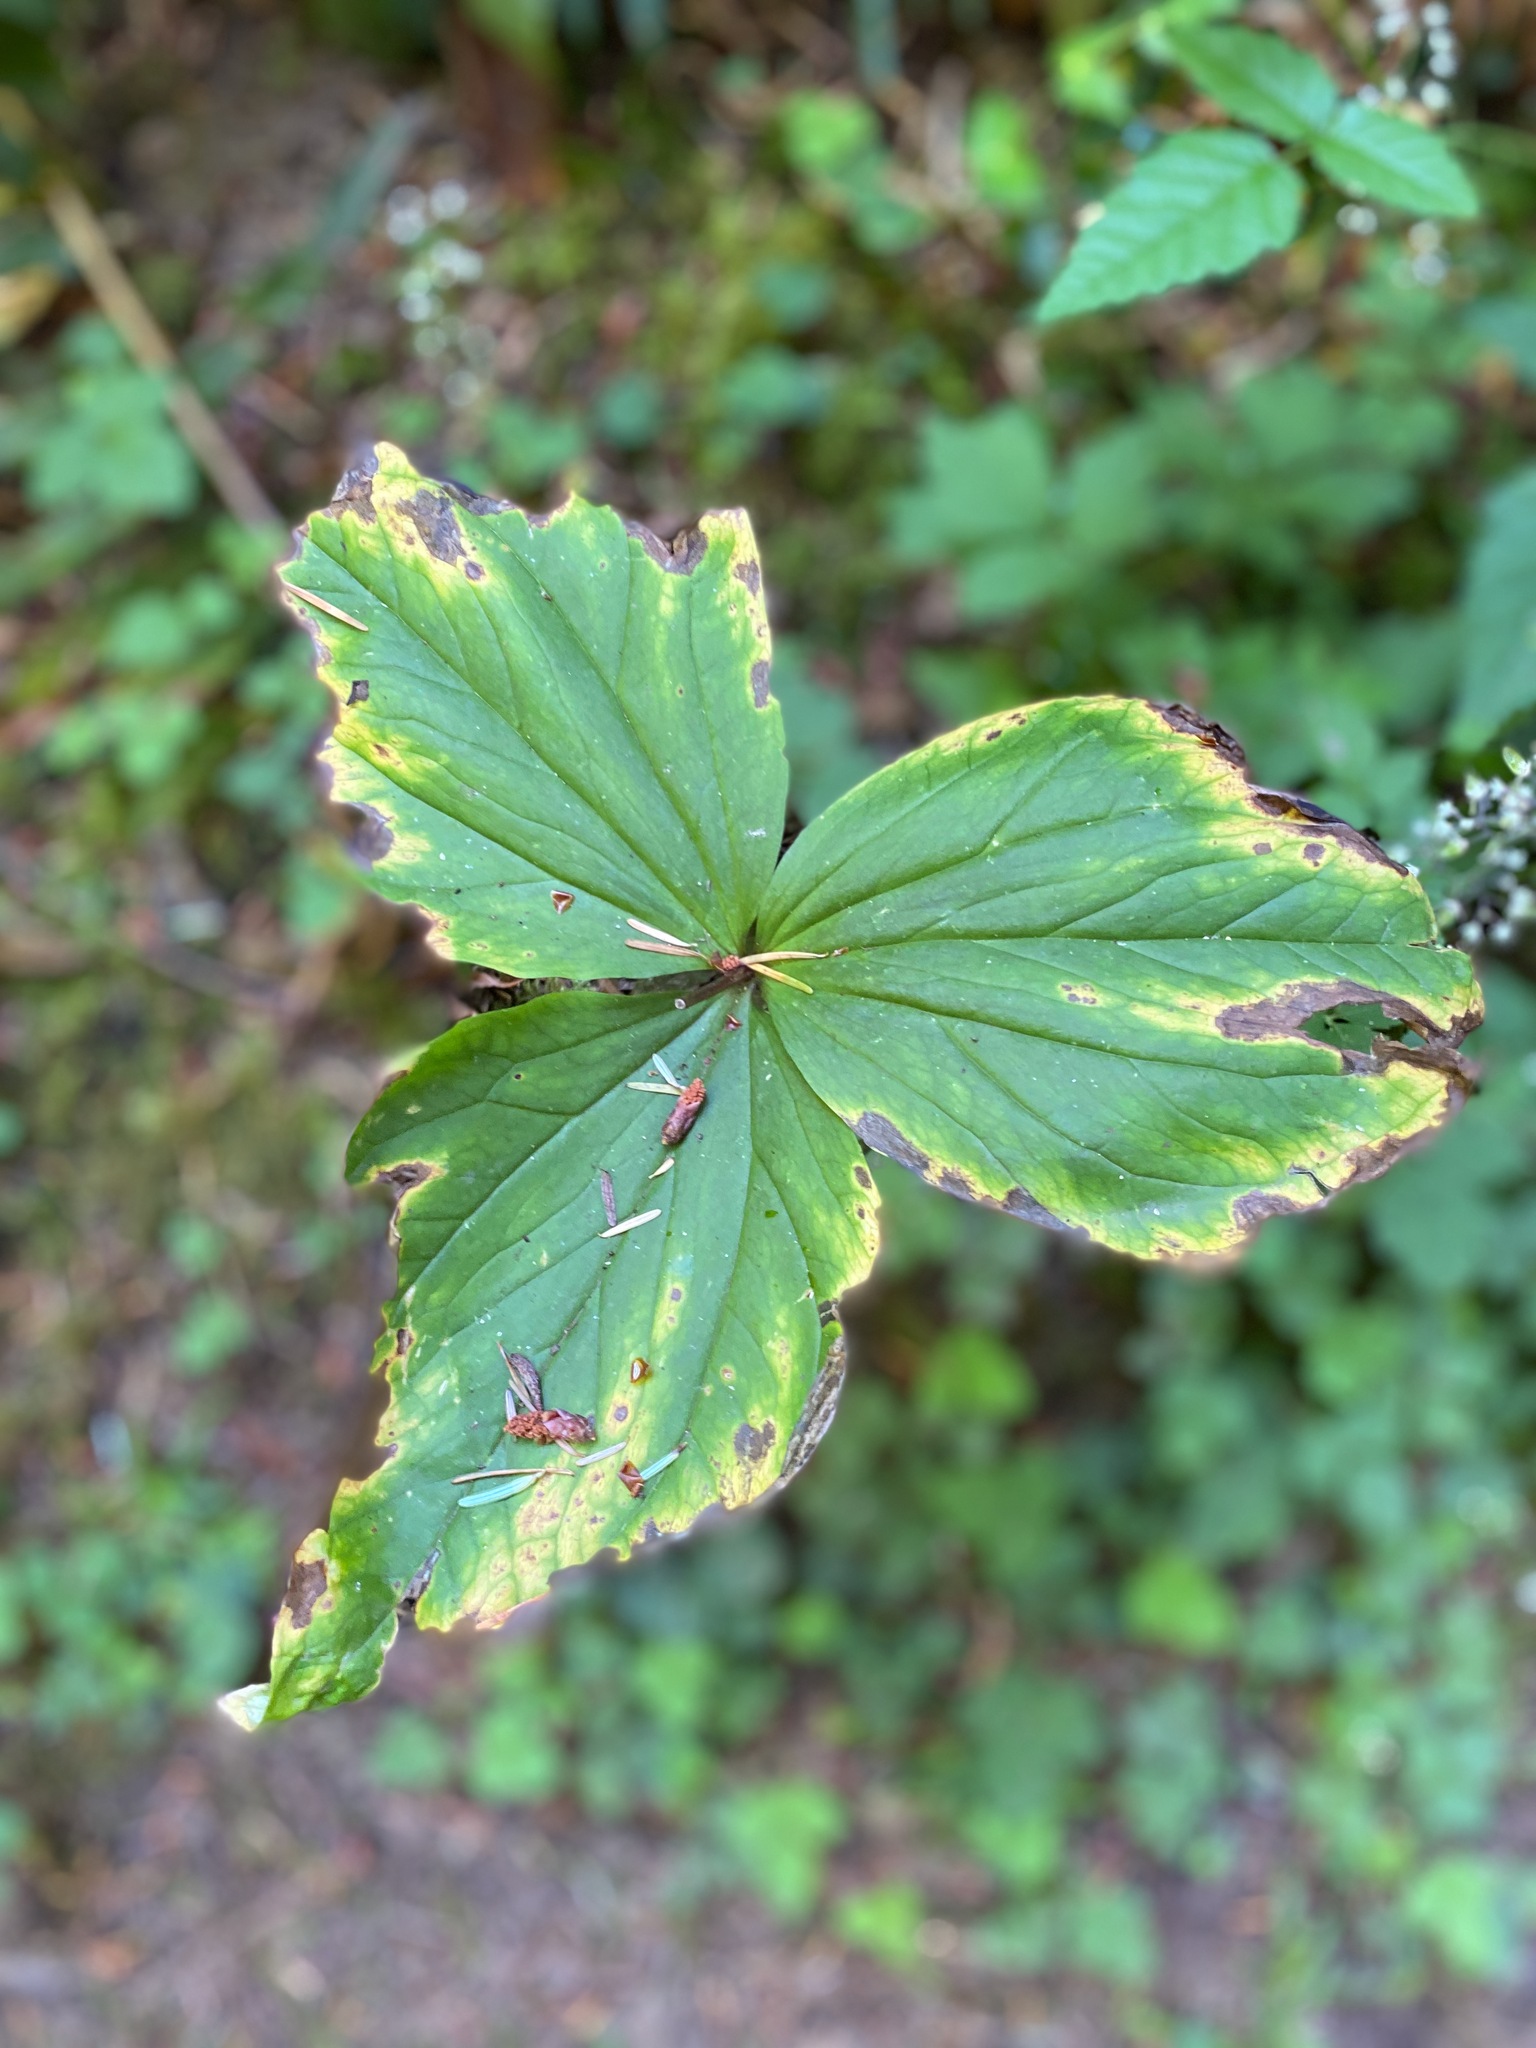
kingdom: Plantae
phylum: Tracheophyta
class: Liliopsida
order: Liliales
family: Melanthiaceae
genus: Trillium
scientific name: Trillium ovatum
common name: Pacific trillium
